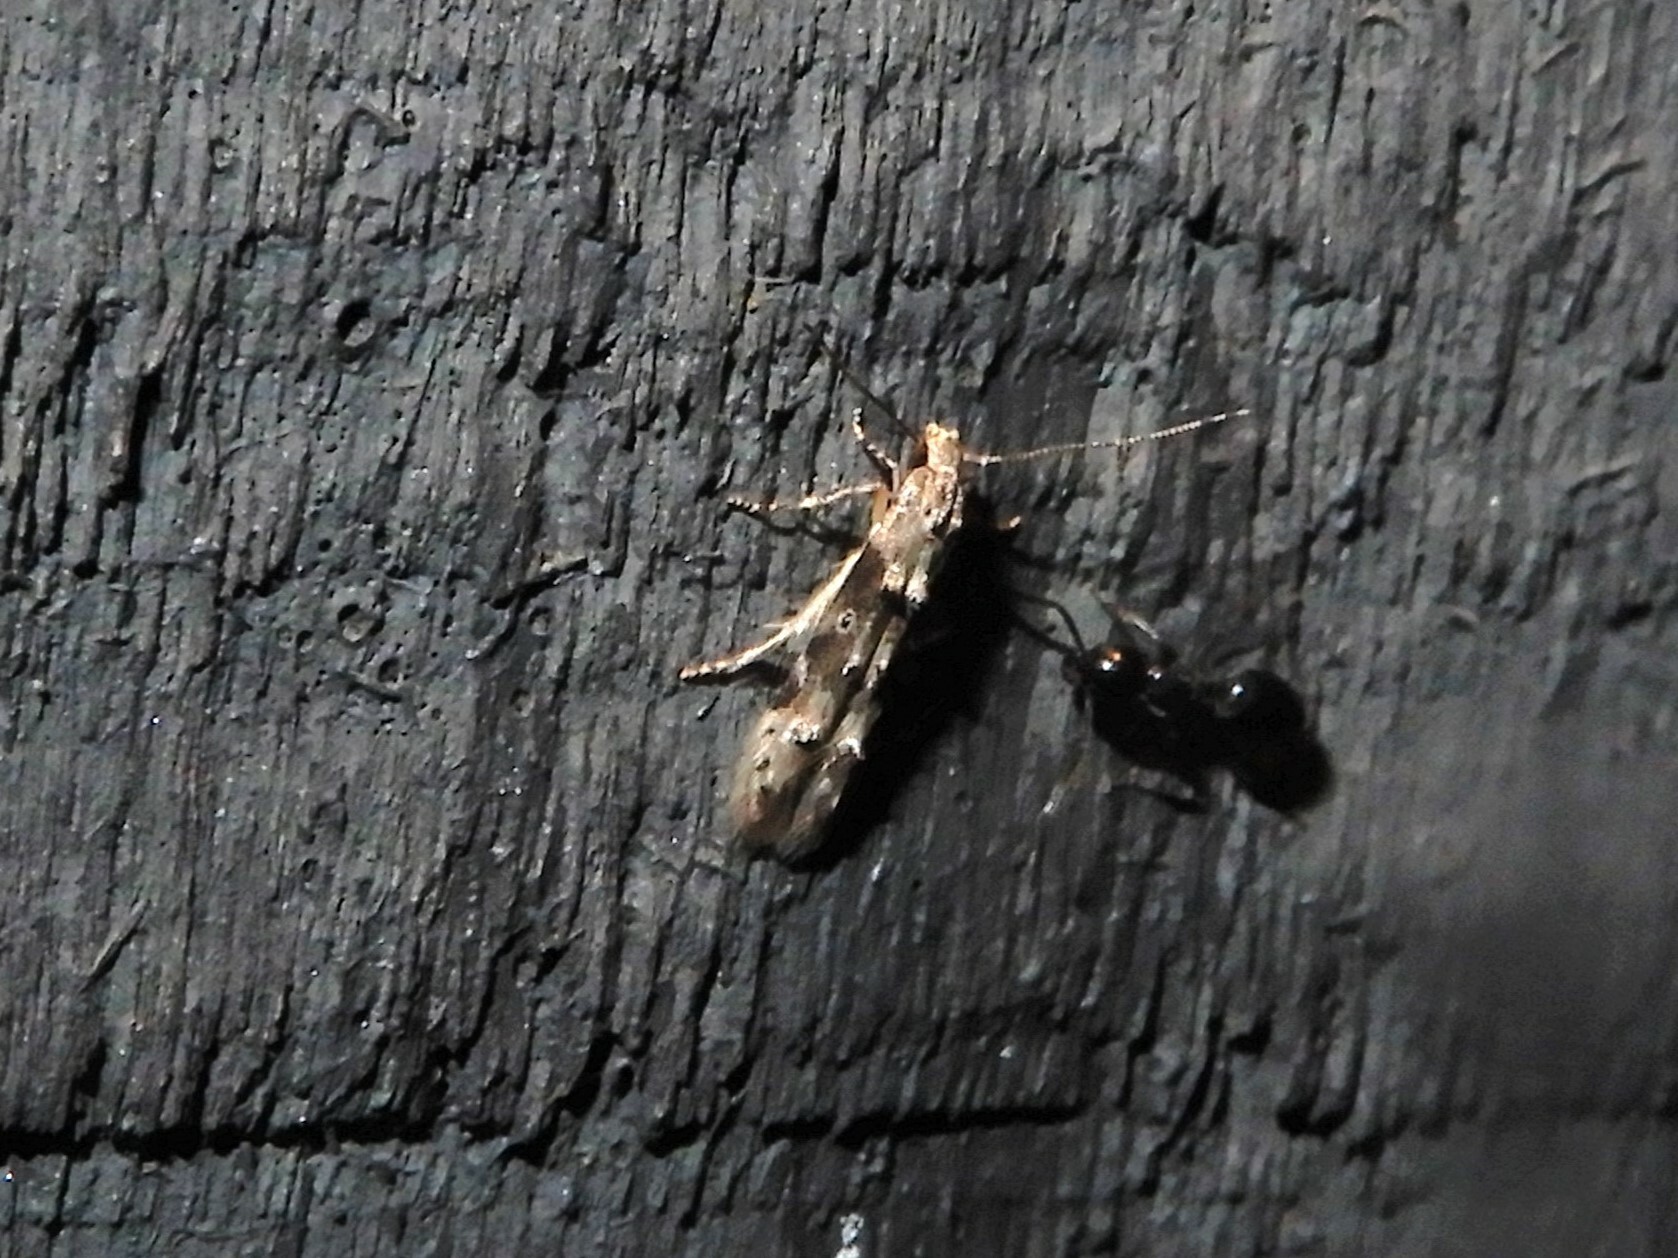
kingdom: Animalia
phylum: Arthropoda
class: Insecta
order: Lepidoptera
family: Elachistidae
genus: Microcolona
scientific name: Microcolona limodes
